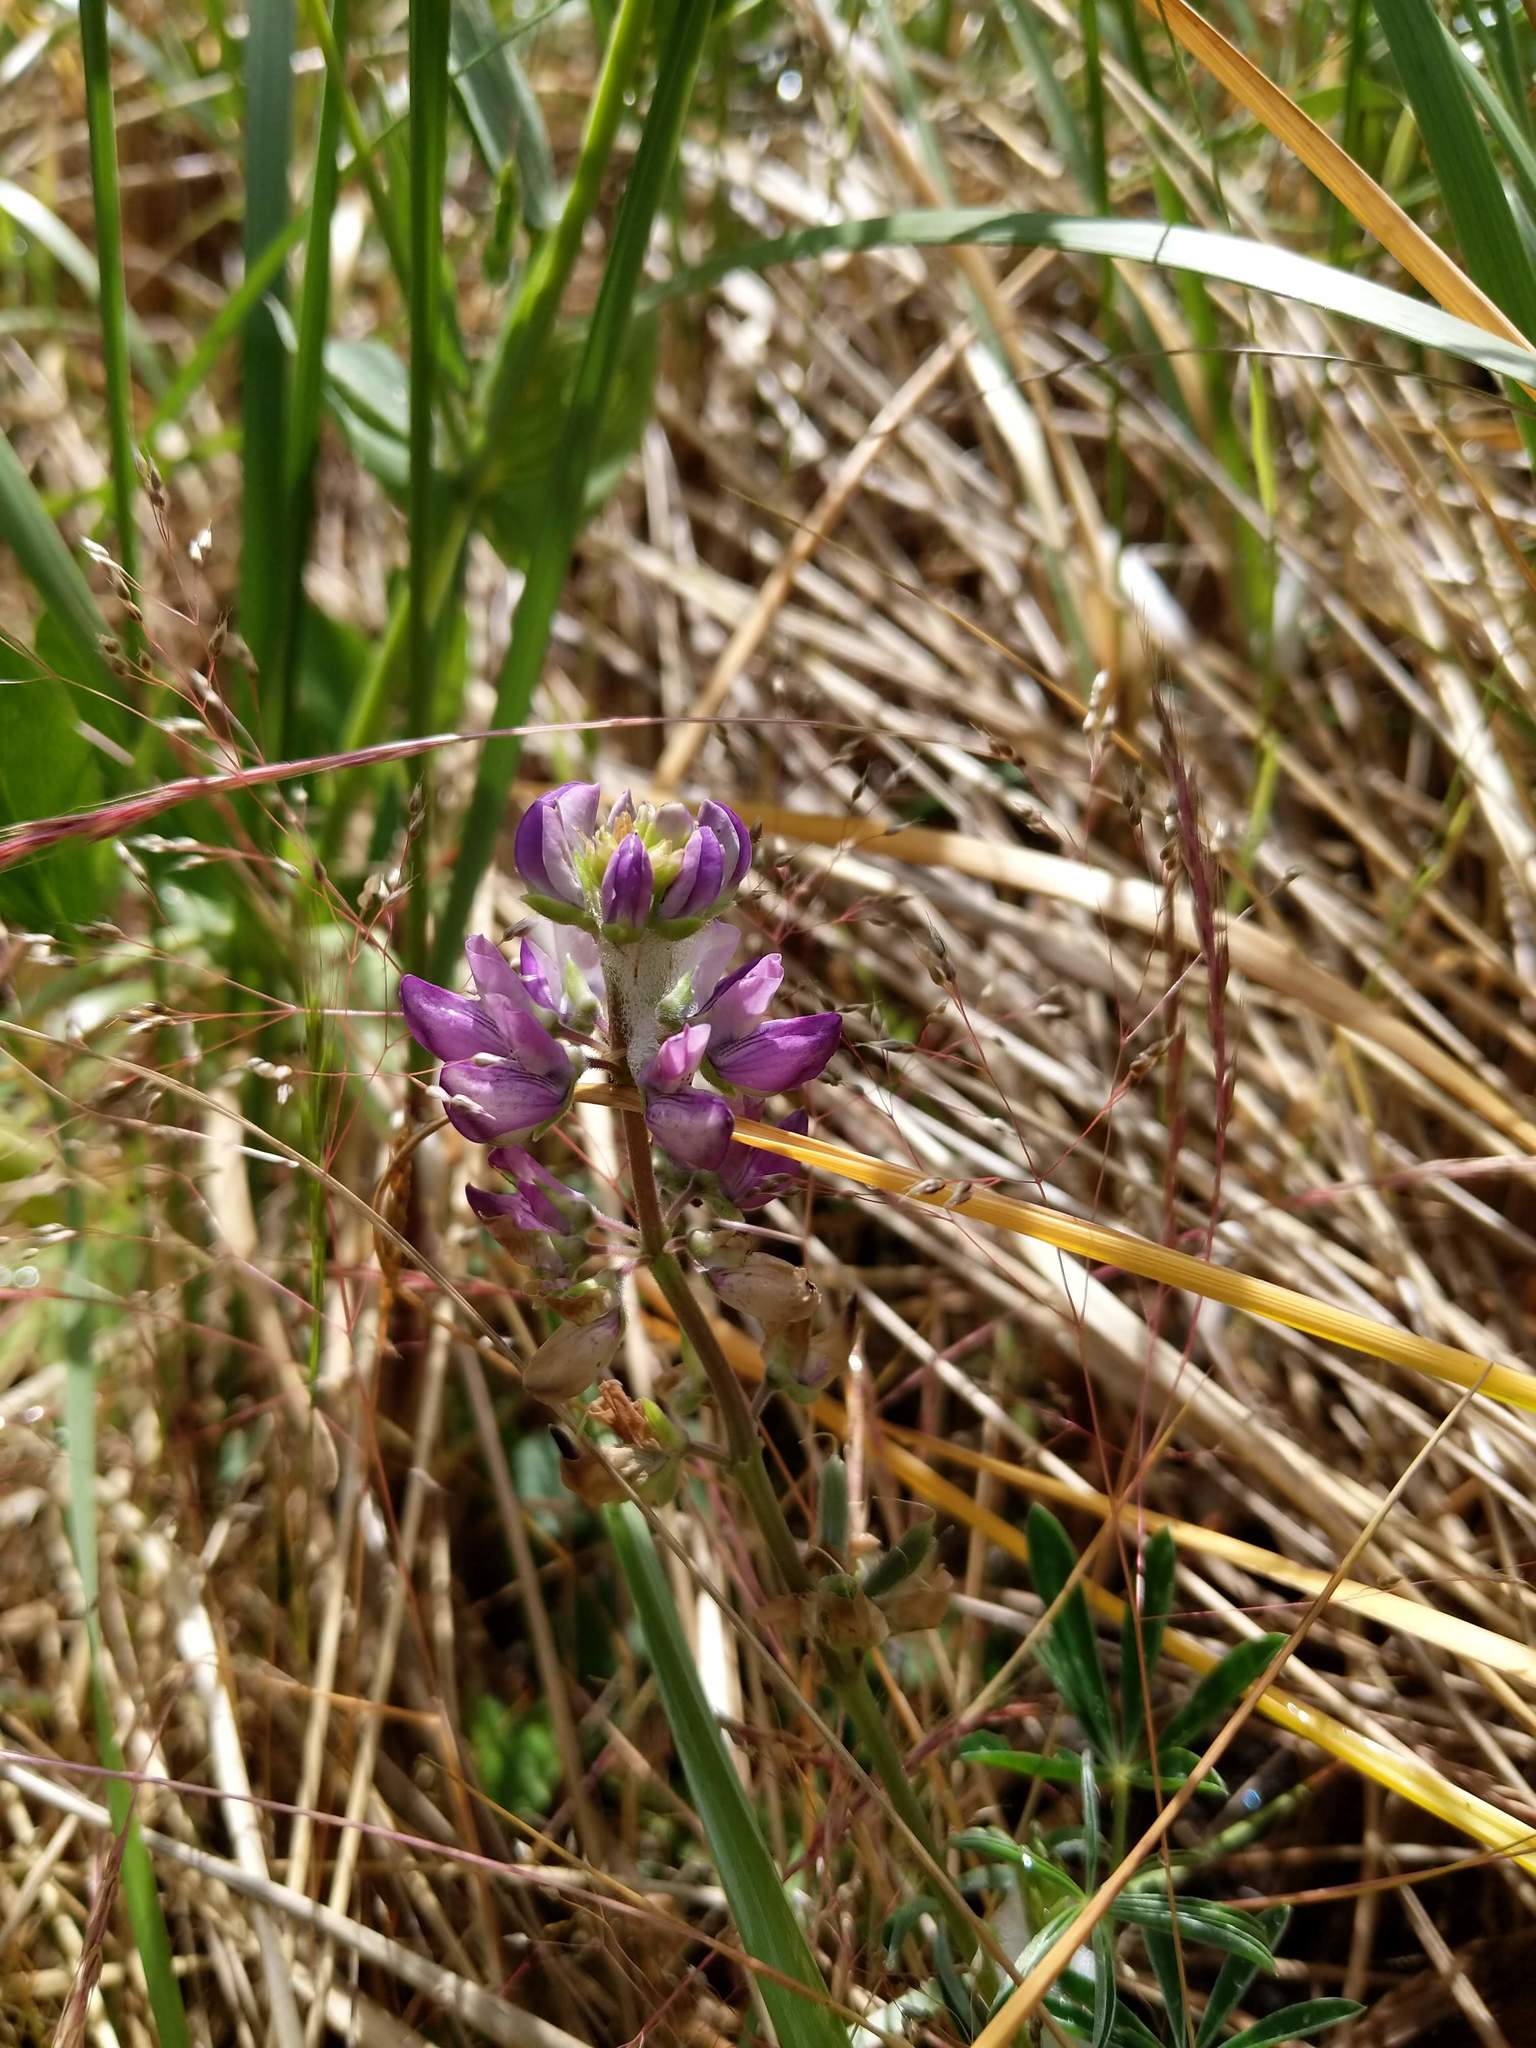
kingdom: Plantae
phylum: Tracheophyta
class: Magnoliopsida
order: Fabales
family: Fabaceae
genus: Lupinus
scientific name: Lupinus littoralis
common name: Seashore lupine
